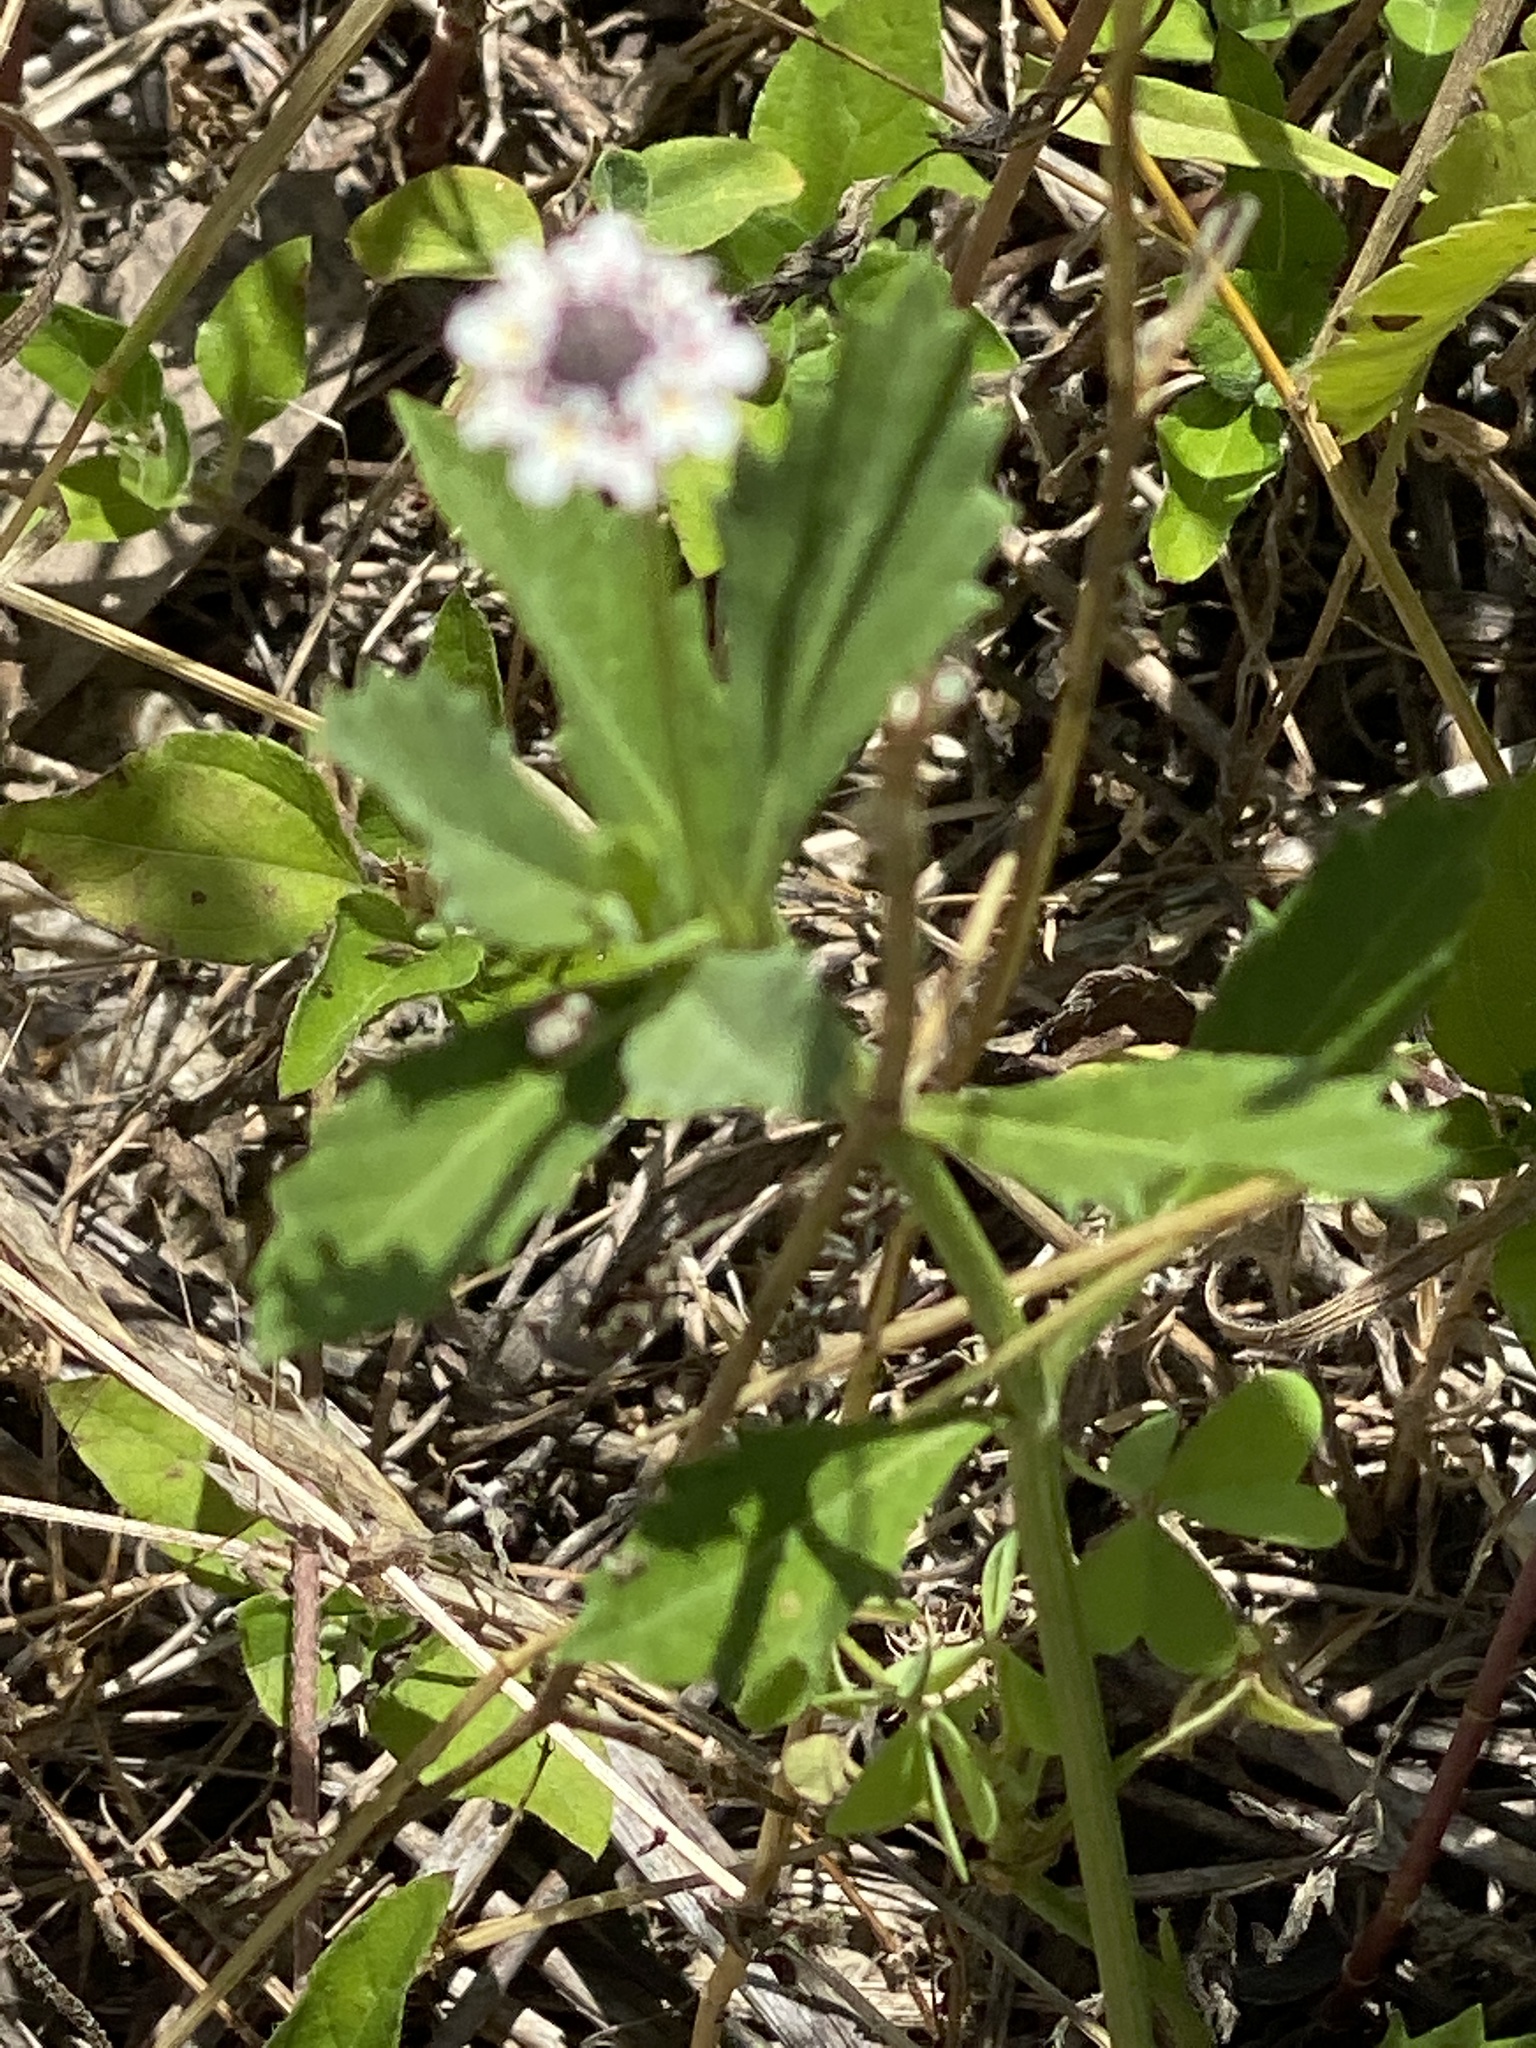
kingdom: Plantae
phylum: Tracheophyta
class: Magnoliopsida
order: Lamiales
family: Verbenaceae
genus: Phyla
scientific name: Phyla nodiflora
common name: Frogfruit
